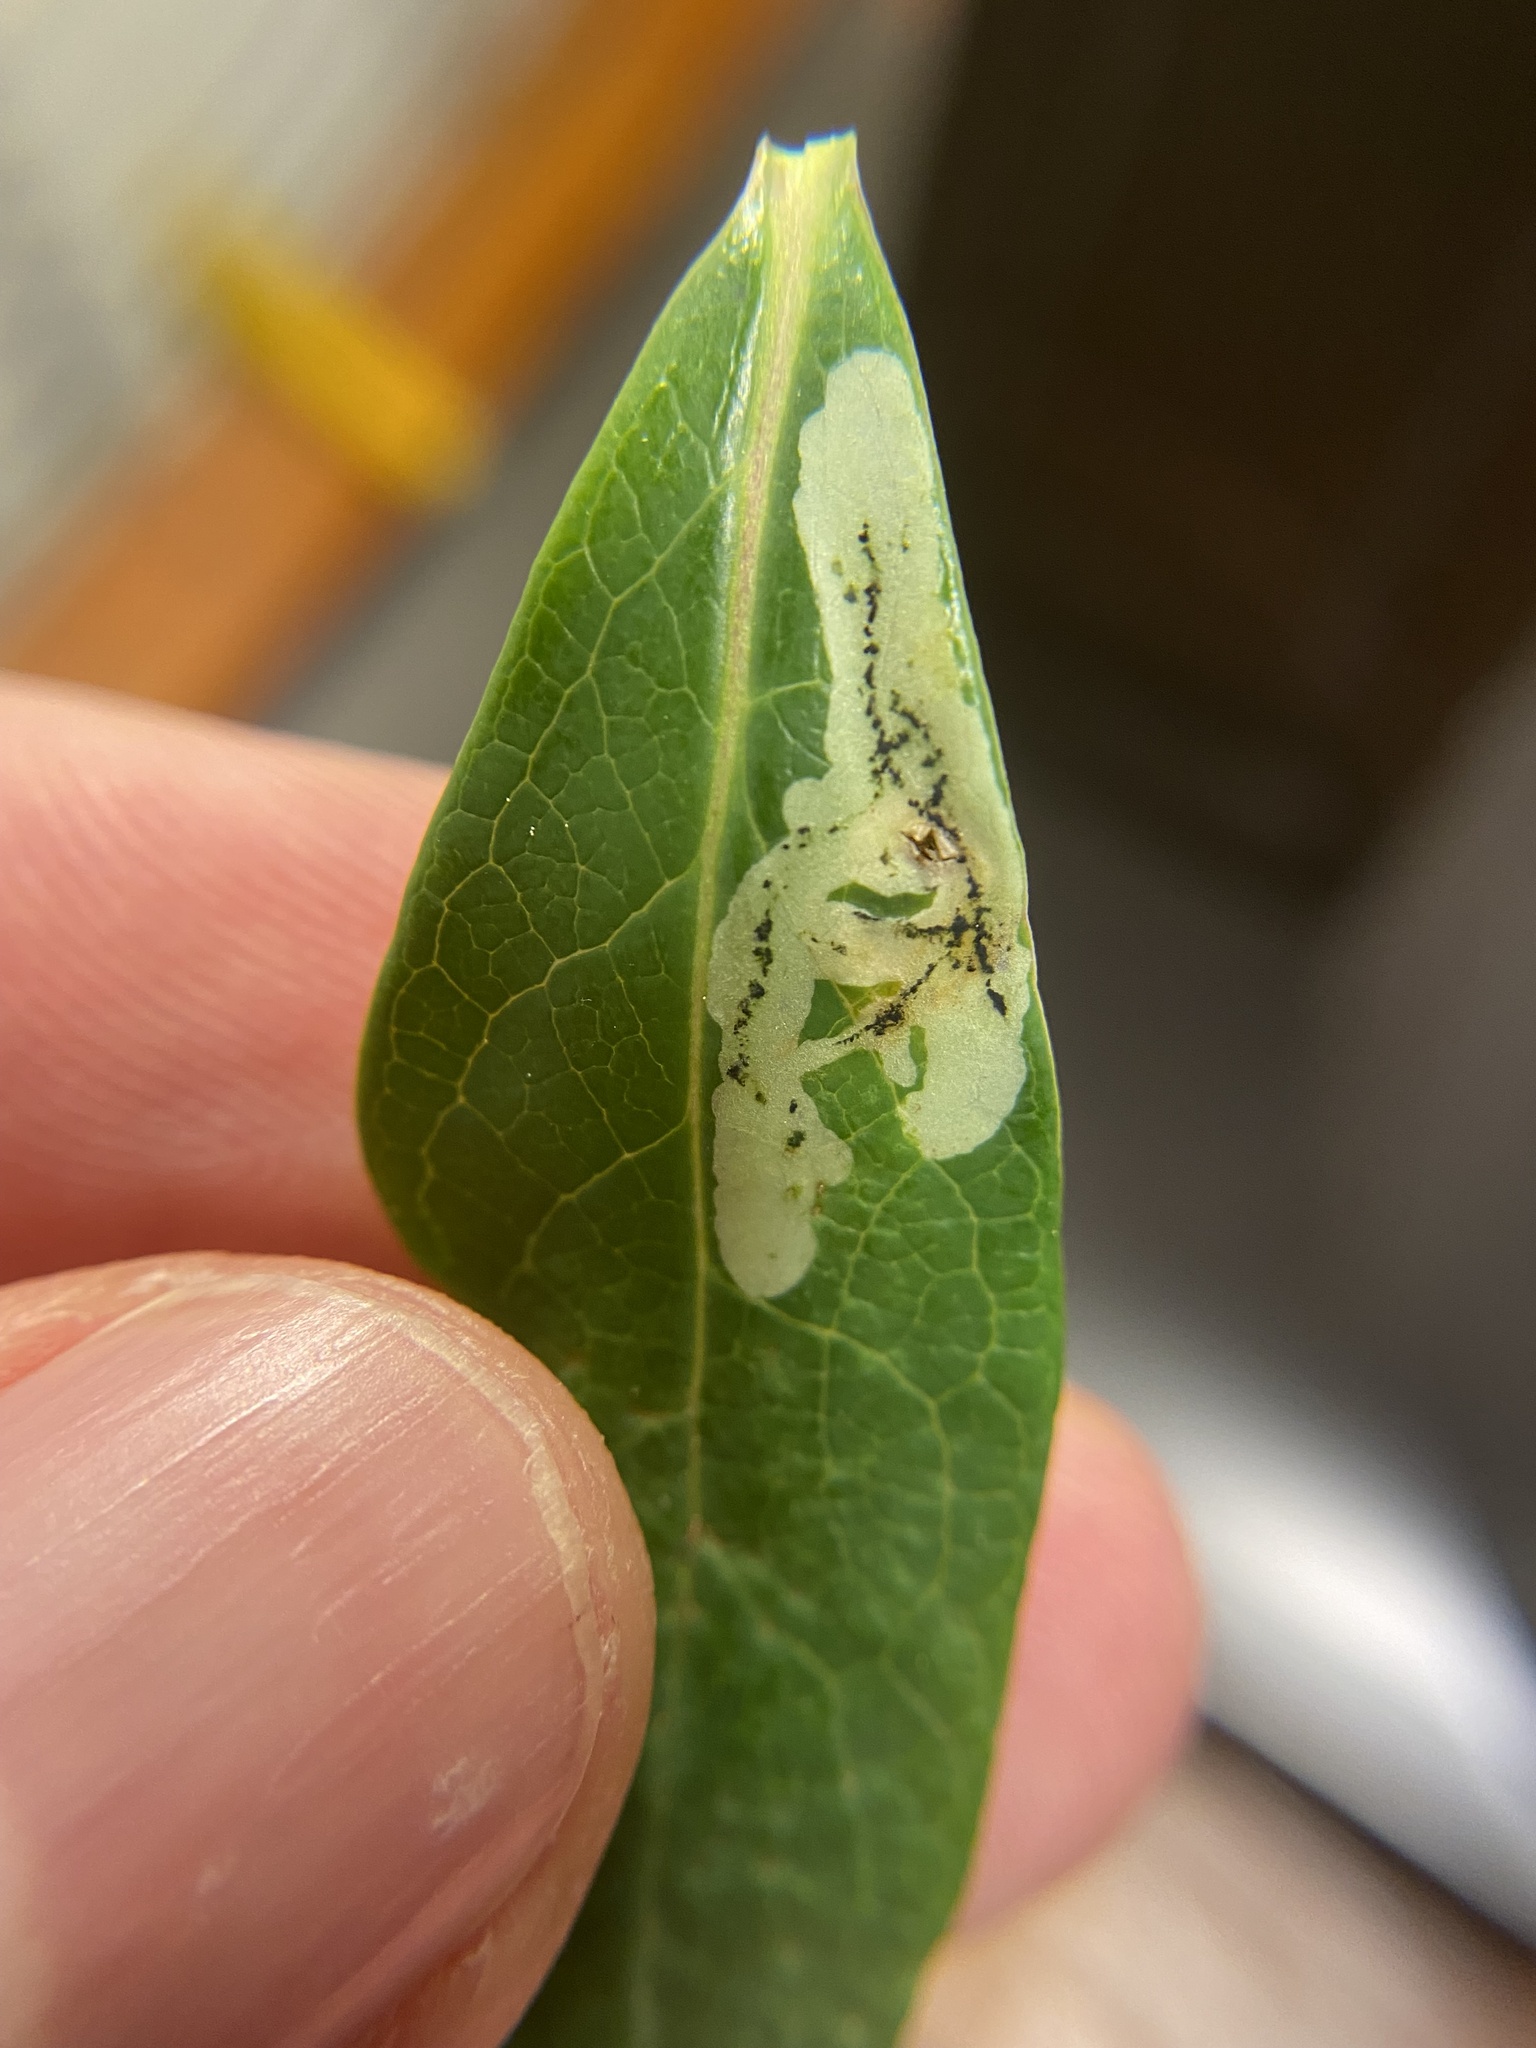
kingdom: Animalia
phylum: Arthropoda
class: Insecta
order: Diptera
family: Agromyzidae
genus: Phytomyza
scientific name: Phytomyza sempervirentis
